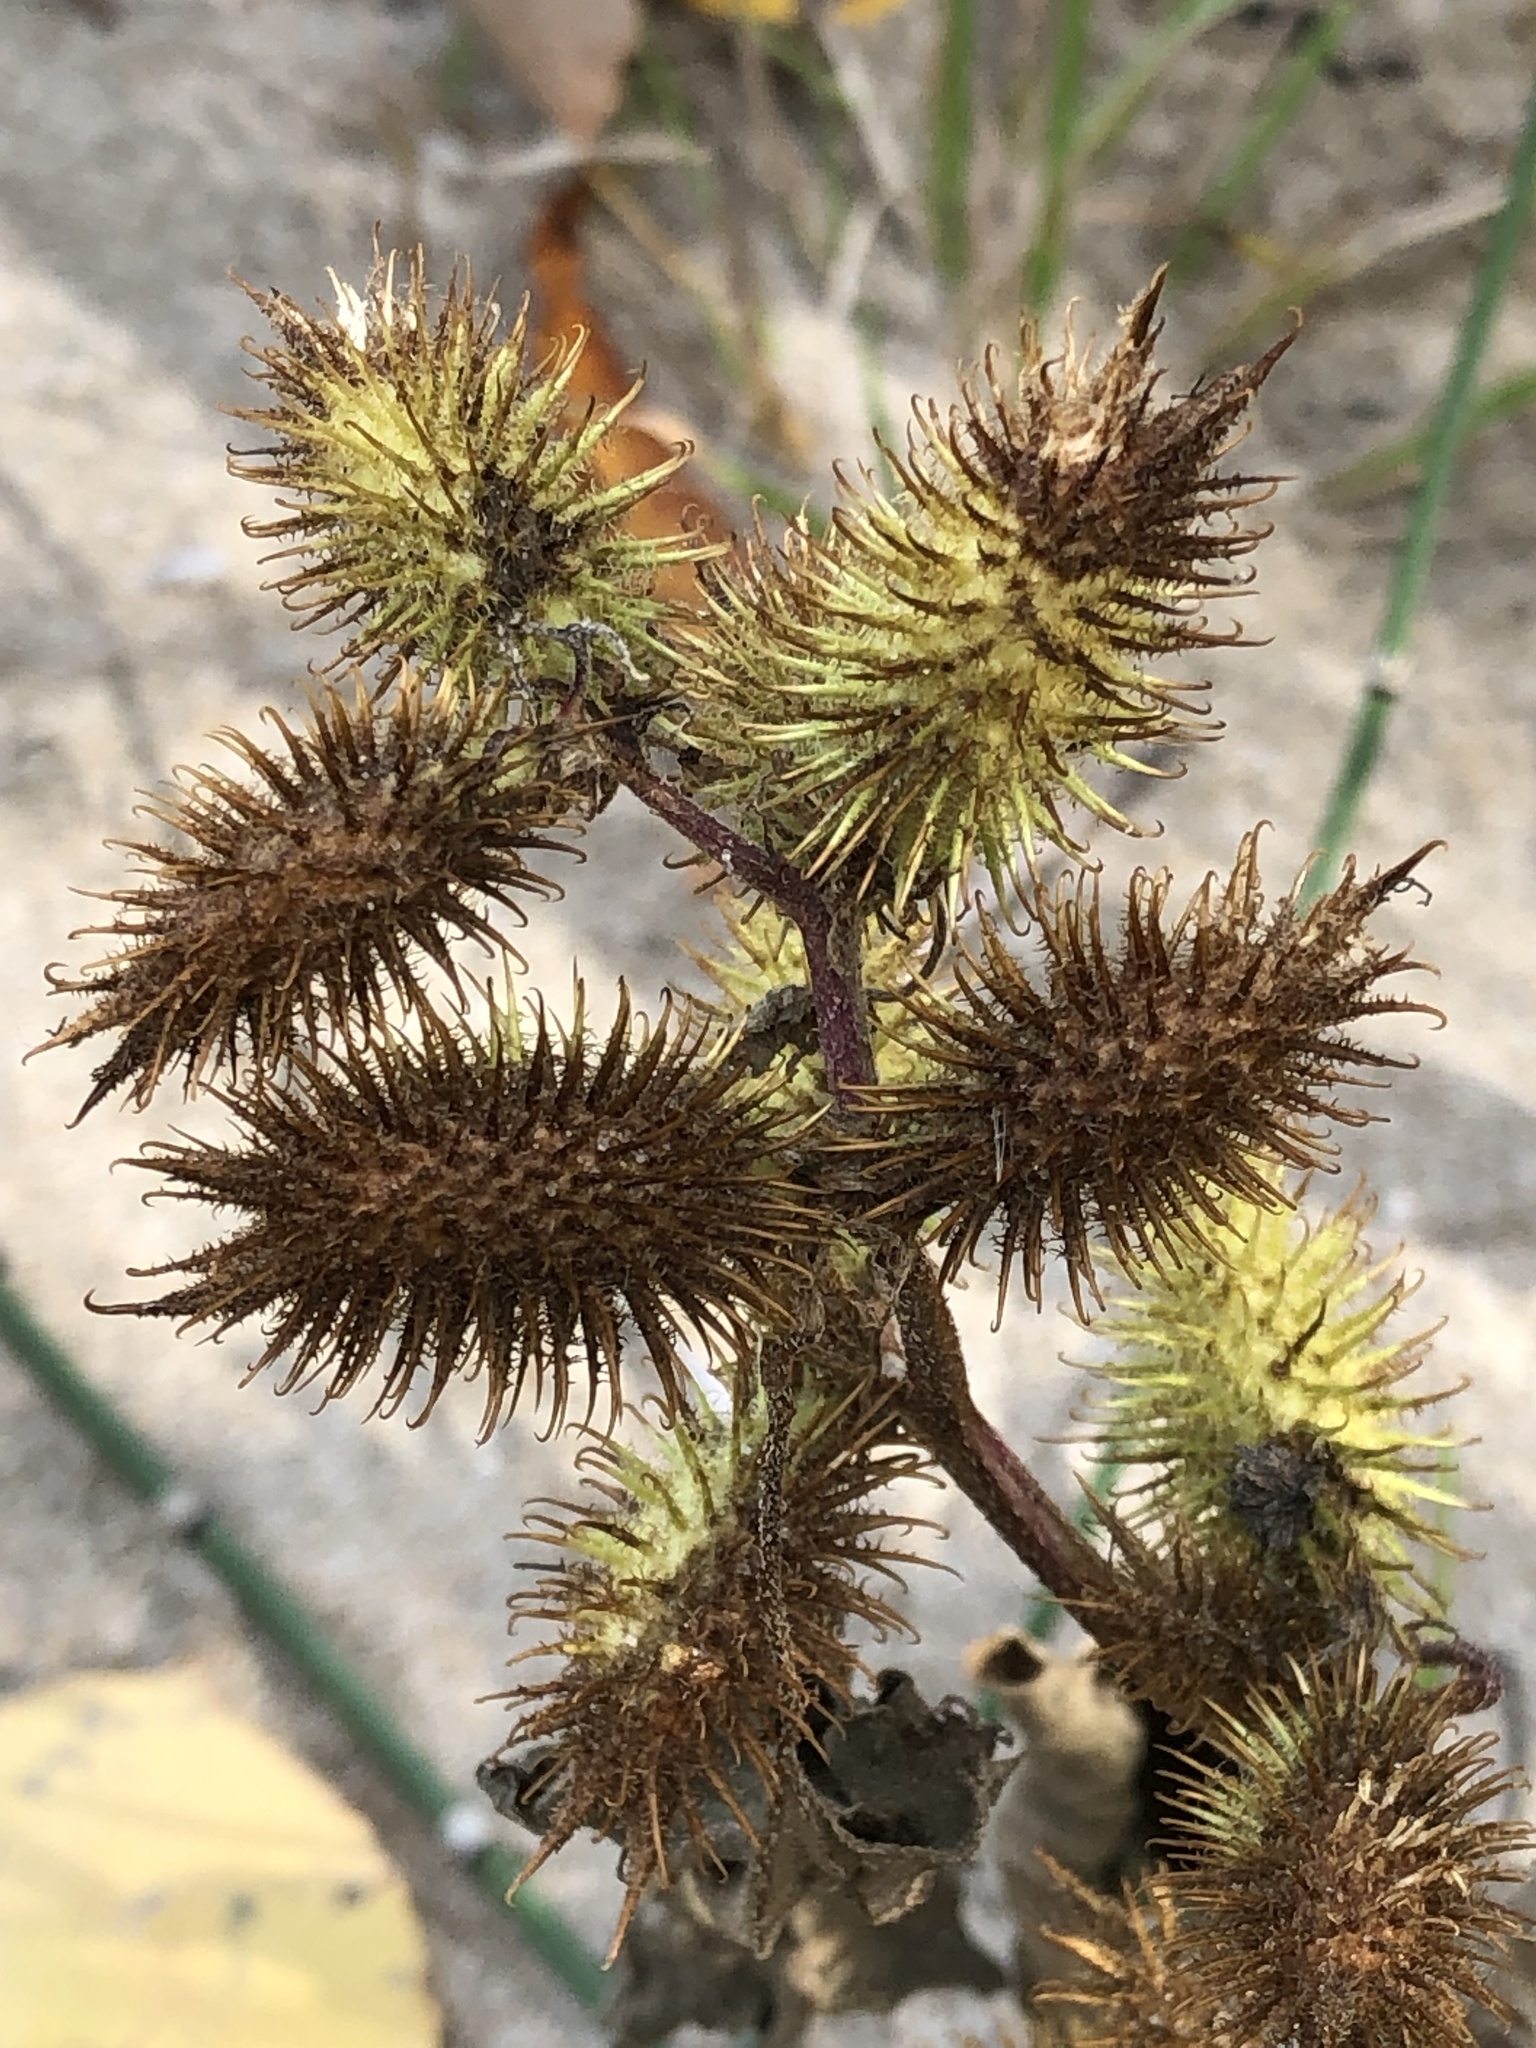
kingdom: Plantae
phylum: Tracheophyta
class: Magnoliopsida
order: Asterales
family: Asteraceae
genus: Xanthium
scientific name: Xanthium strumarium
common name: Rough cocklebur
